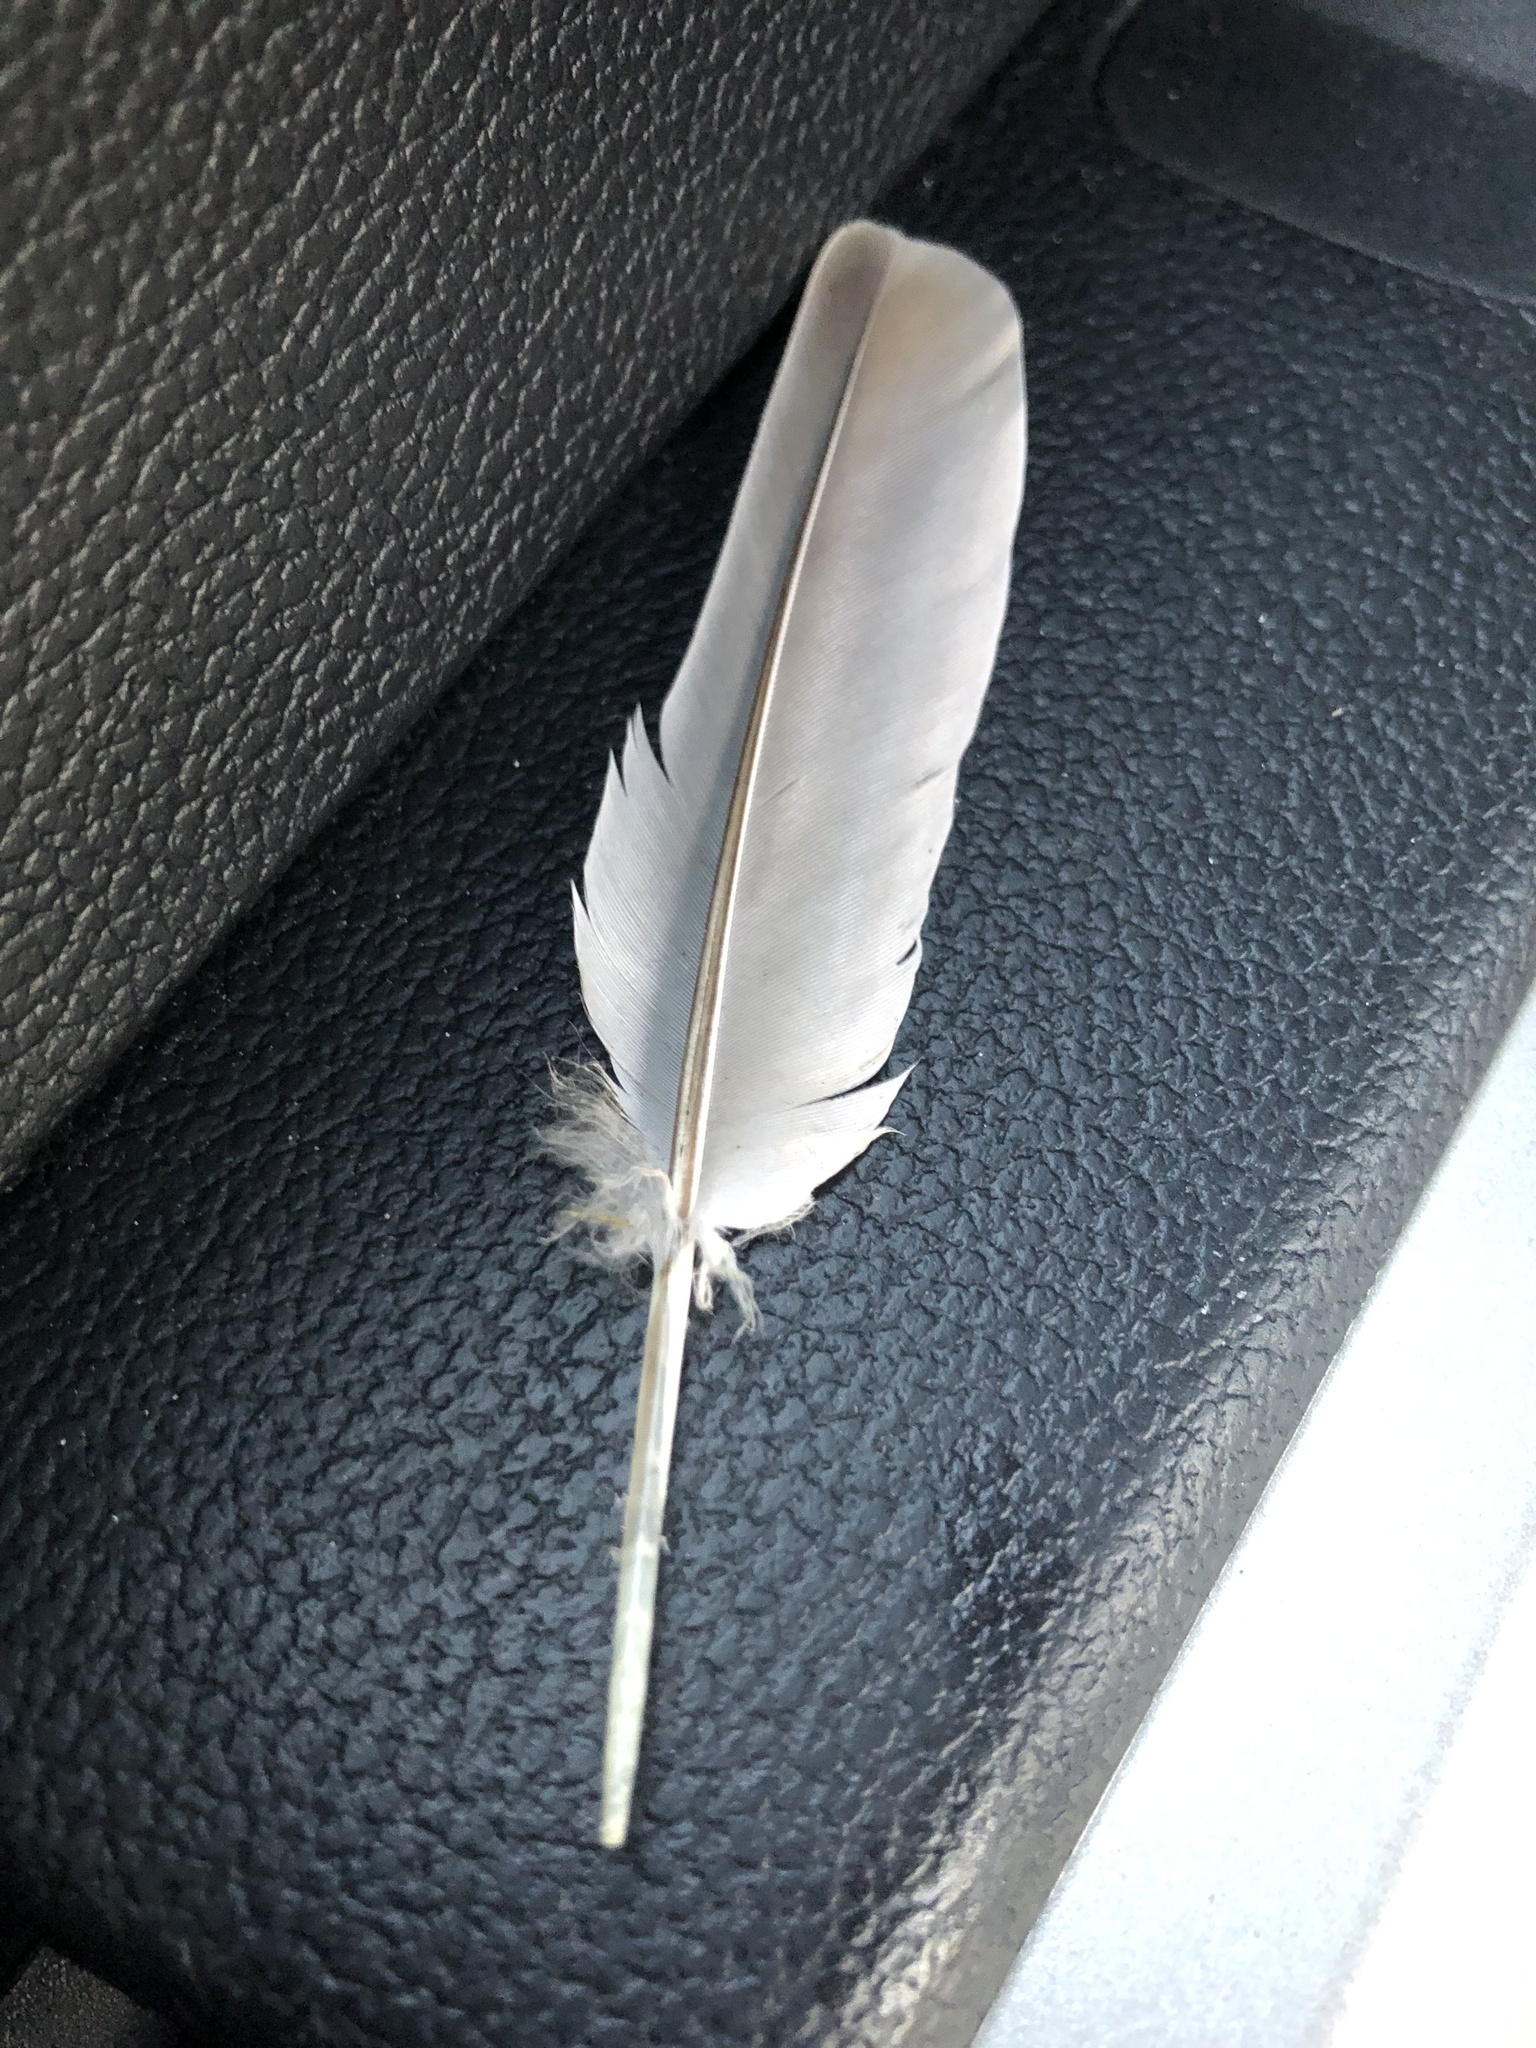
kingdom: Animalia
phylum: Chordata
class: Aves
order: Columbiformes
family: Columbidae
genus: Zenaida
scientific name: Zenaida macroura
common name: Mourning dove
